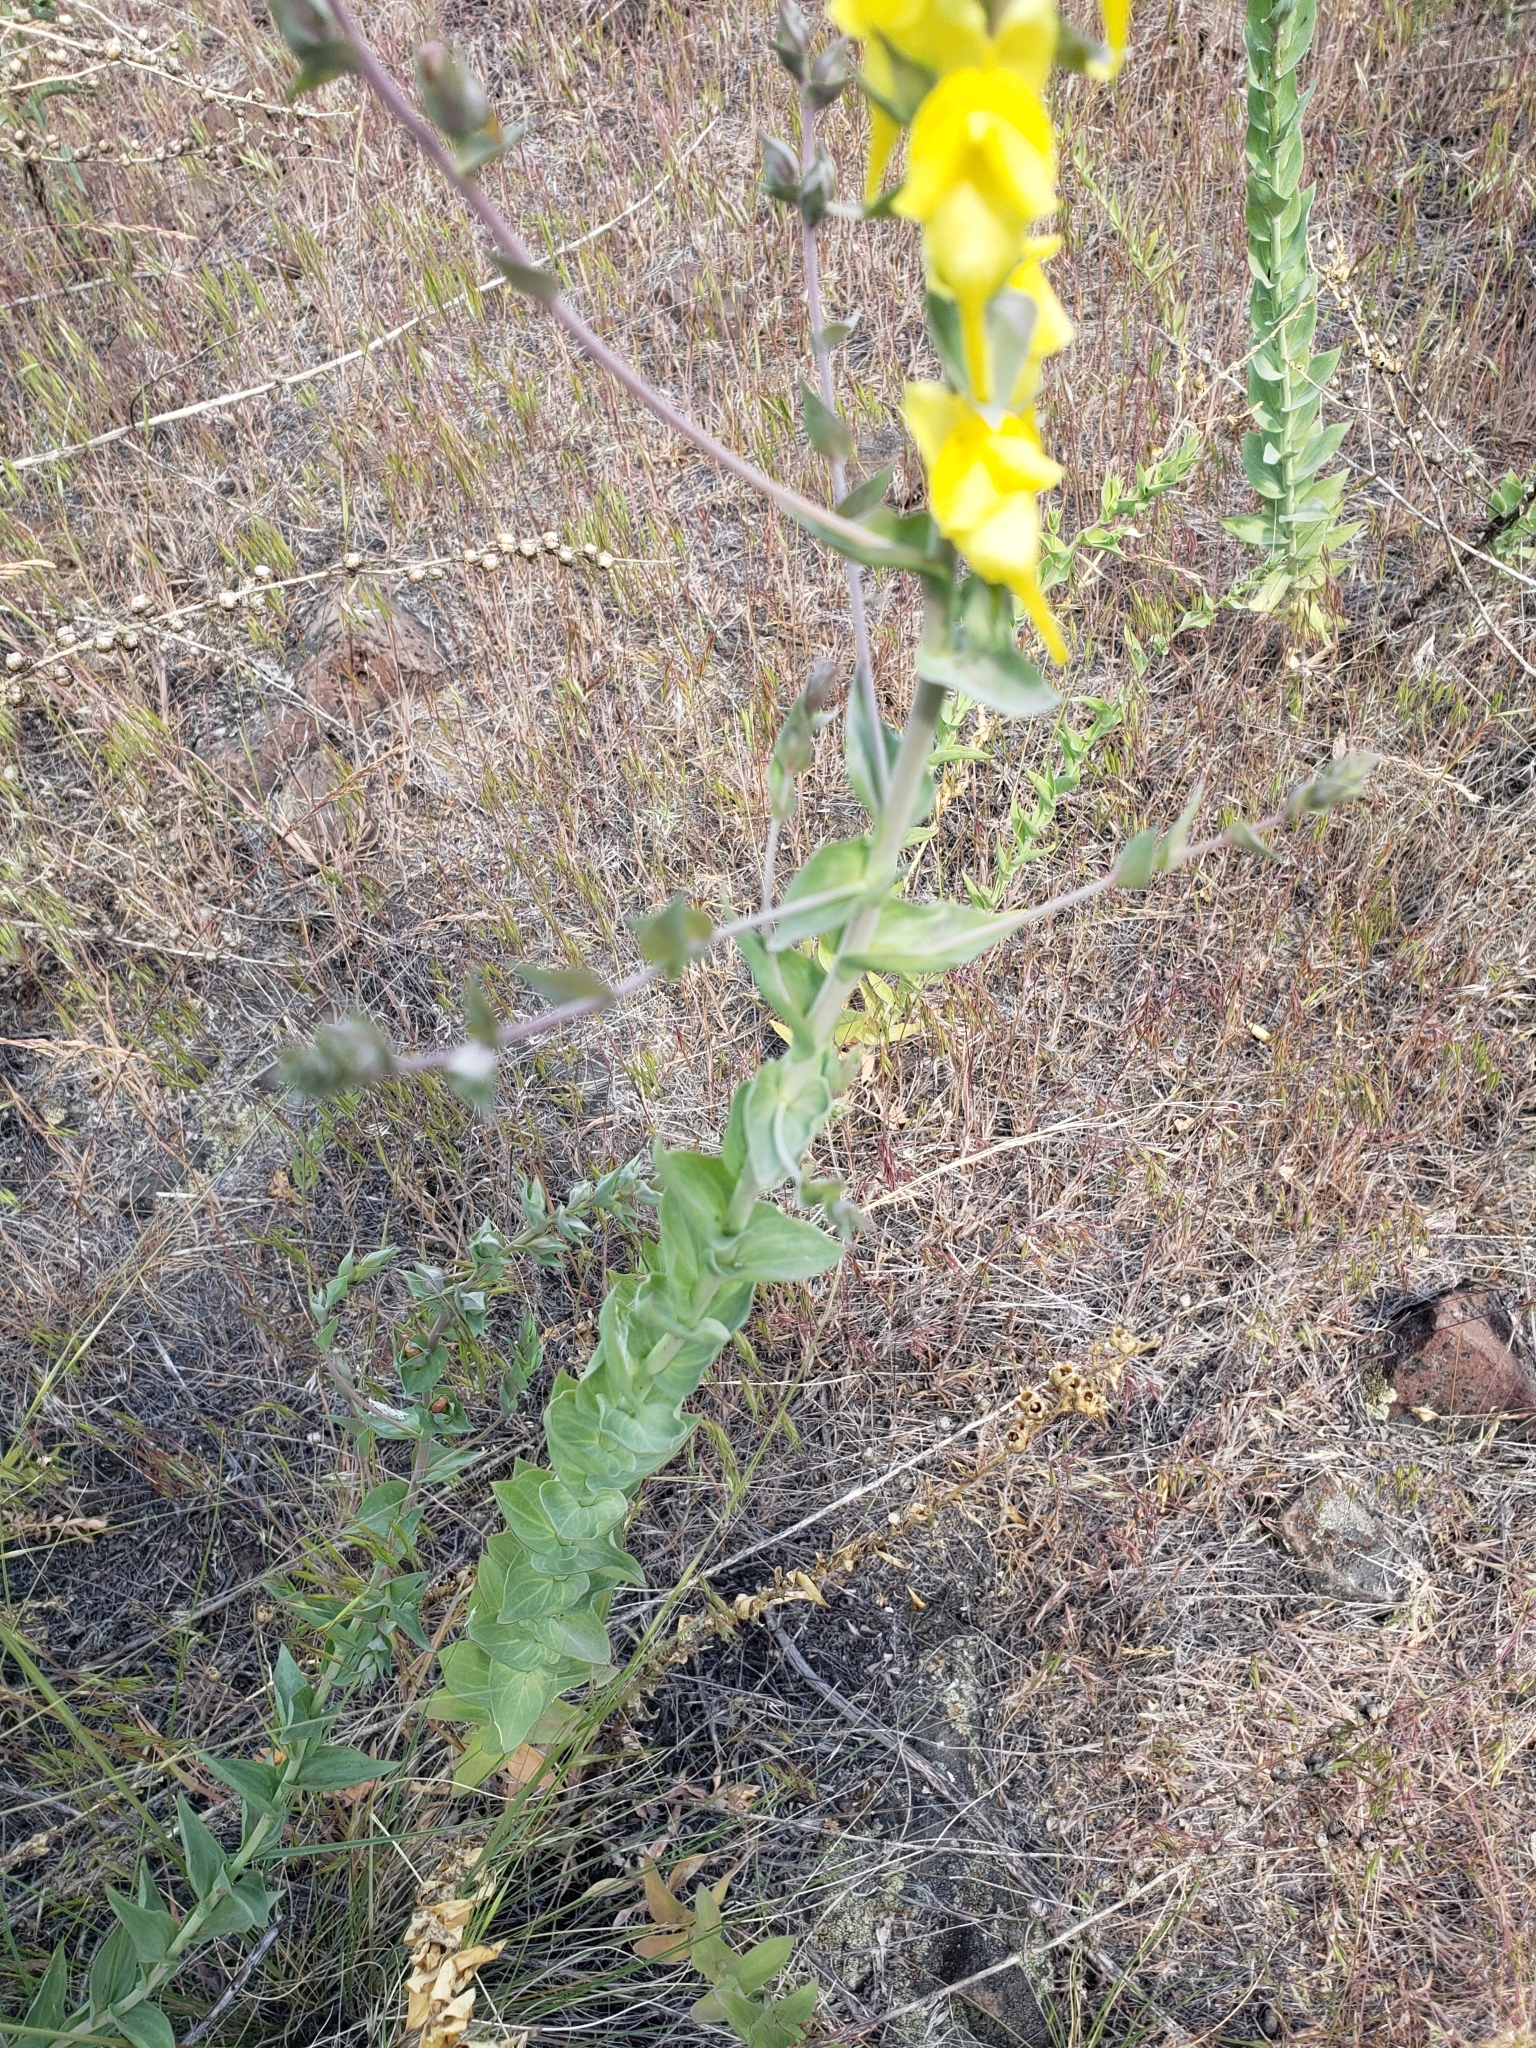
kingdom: Plantae
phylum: Tracheophyta
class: Magnoliopsida
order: Lamiales
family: Plantaginaceae
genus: Linaria
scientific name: Linaria dalmatica
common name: Dalmatian toadflax
